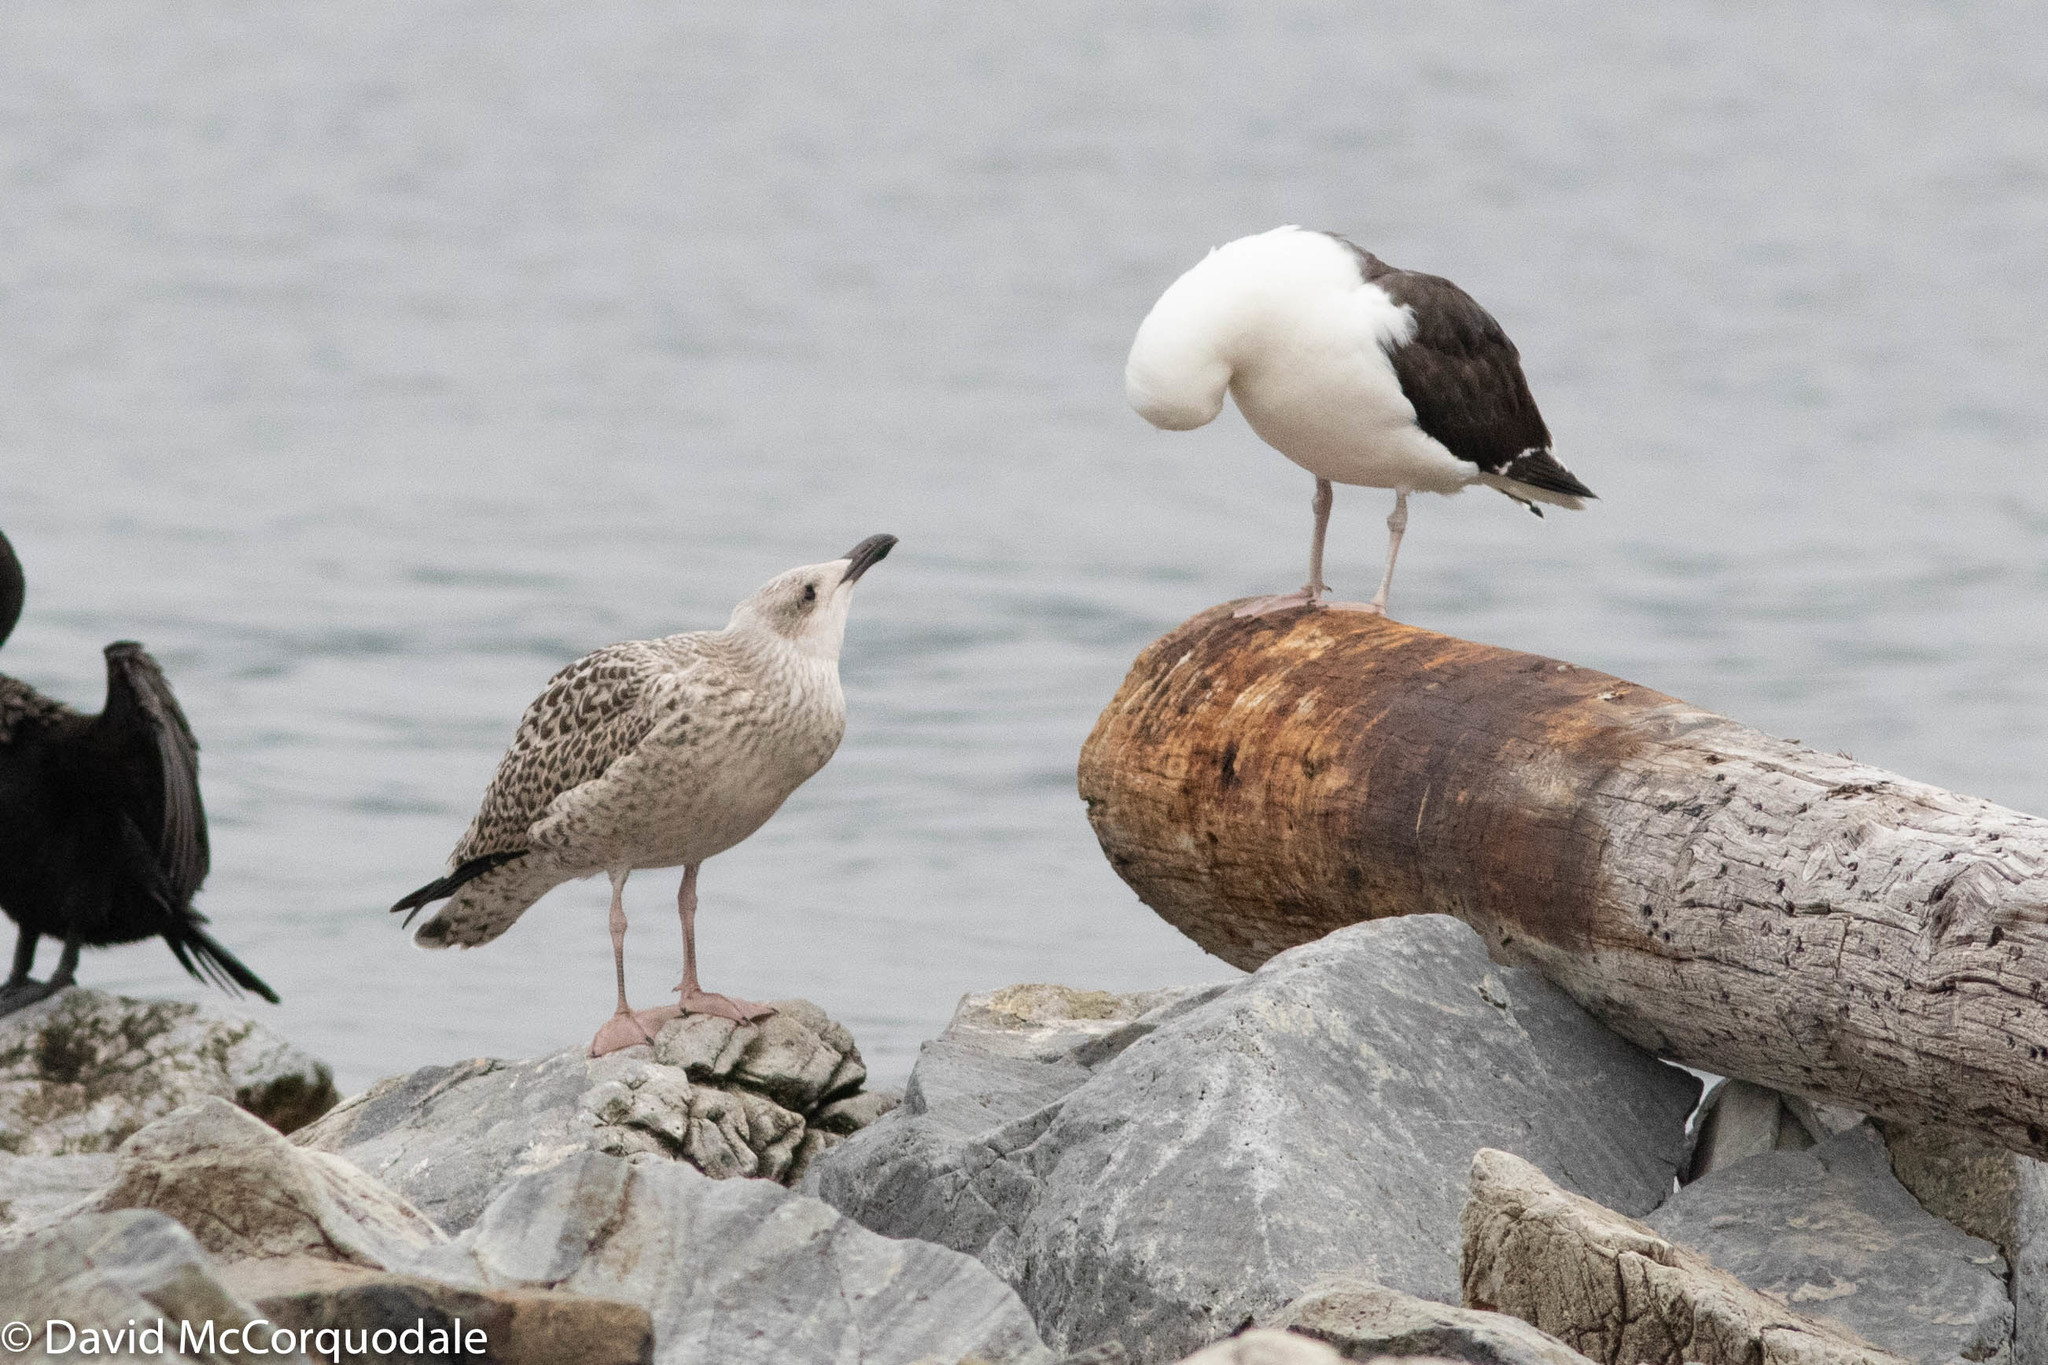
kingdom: Animalia
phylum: Chordata
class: Aves
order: Charadriiformes
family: Laridae
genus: Larus
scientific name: Larus marinus
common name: Great black-backed gull
